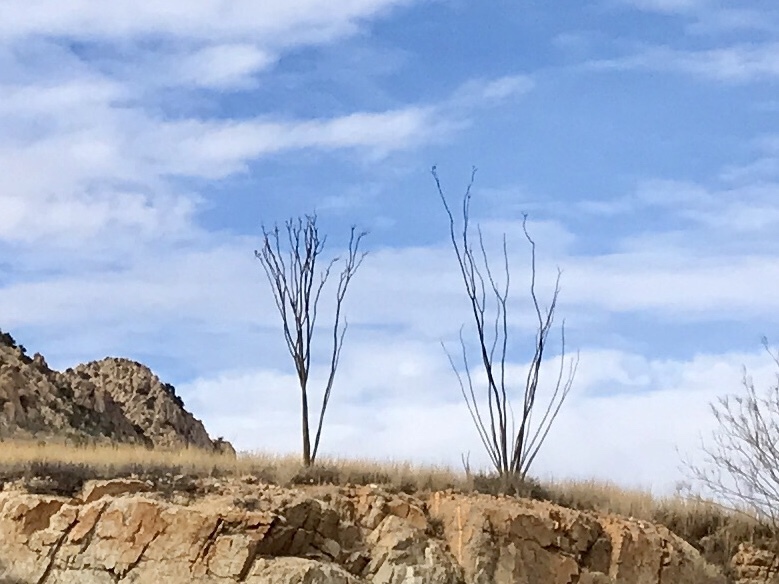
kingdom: Plantae
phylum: Tracheophyta
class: Magnoliopsida
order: Ericales
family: Fouquieriaceae
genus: Fouquieria
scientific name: Fouquieria splendens
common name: Vine-cactus
